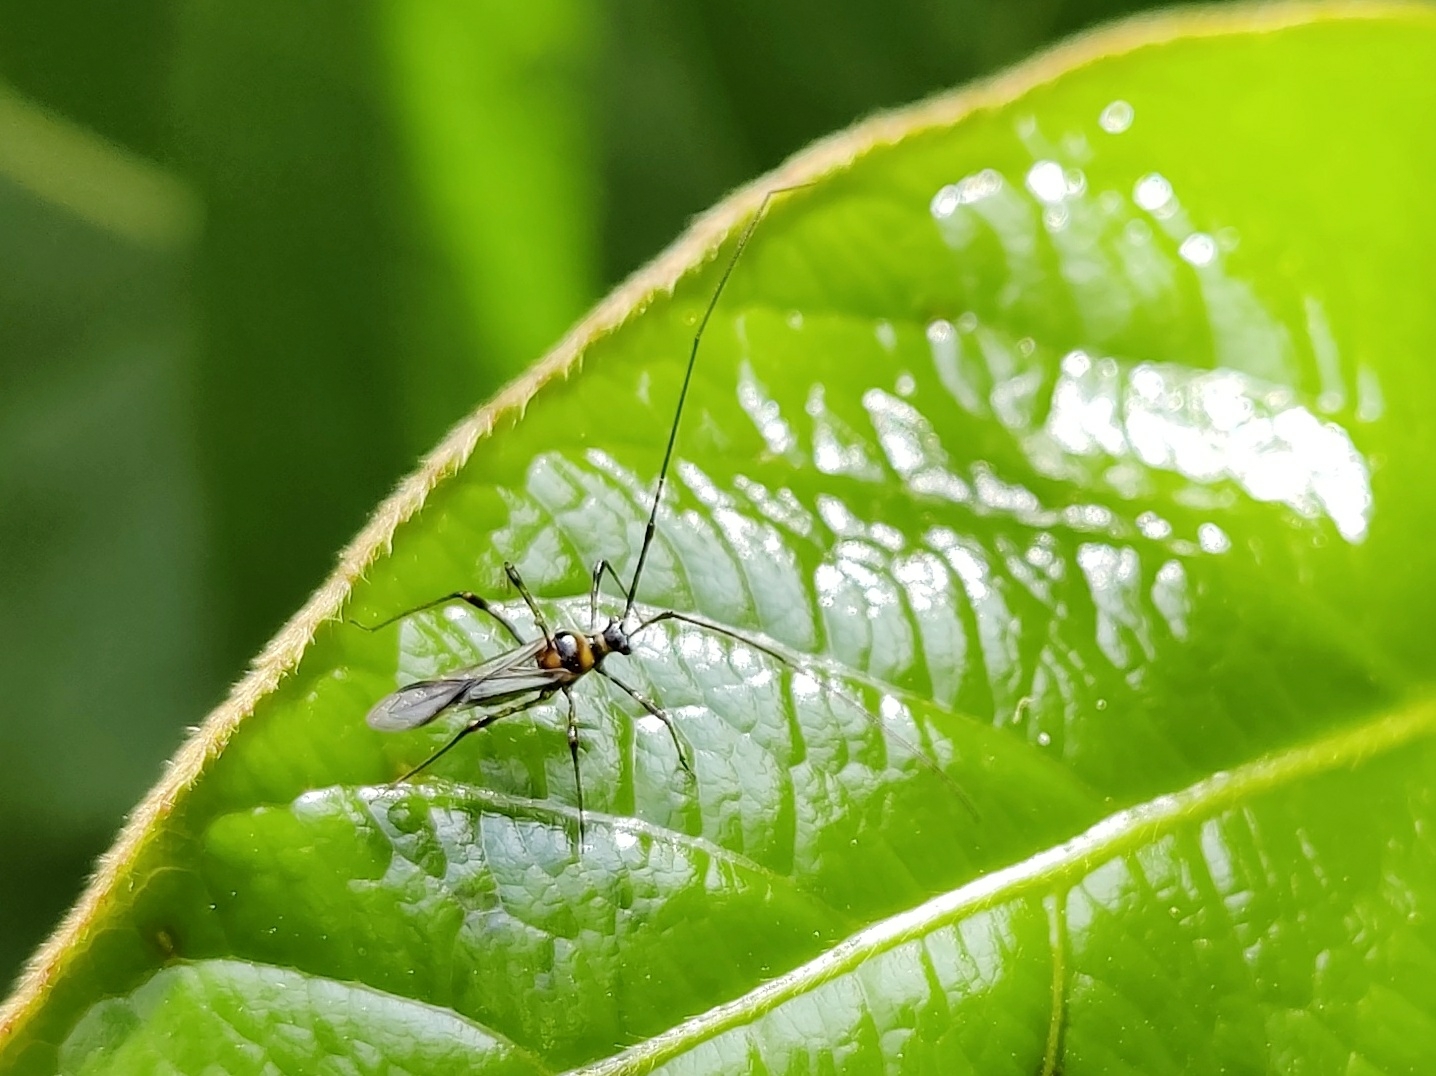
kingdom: Animalia
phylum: Arthropoda
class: Insecta
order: Hemiptera
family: Miridae
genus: Helopeltis
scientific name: Helopeltis theivora
